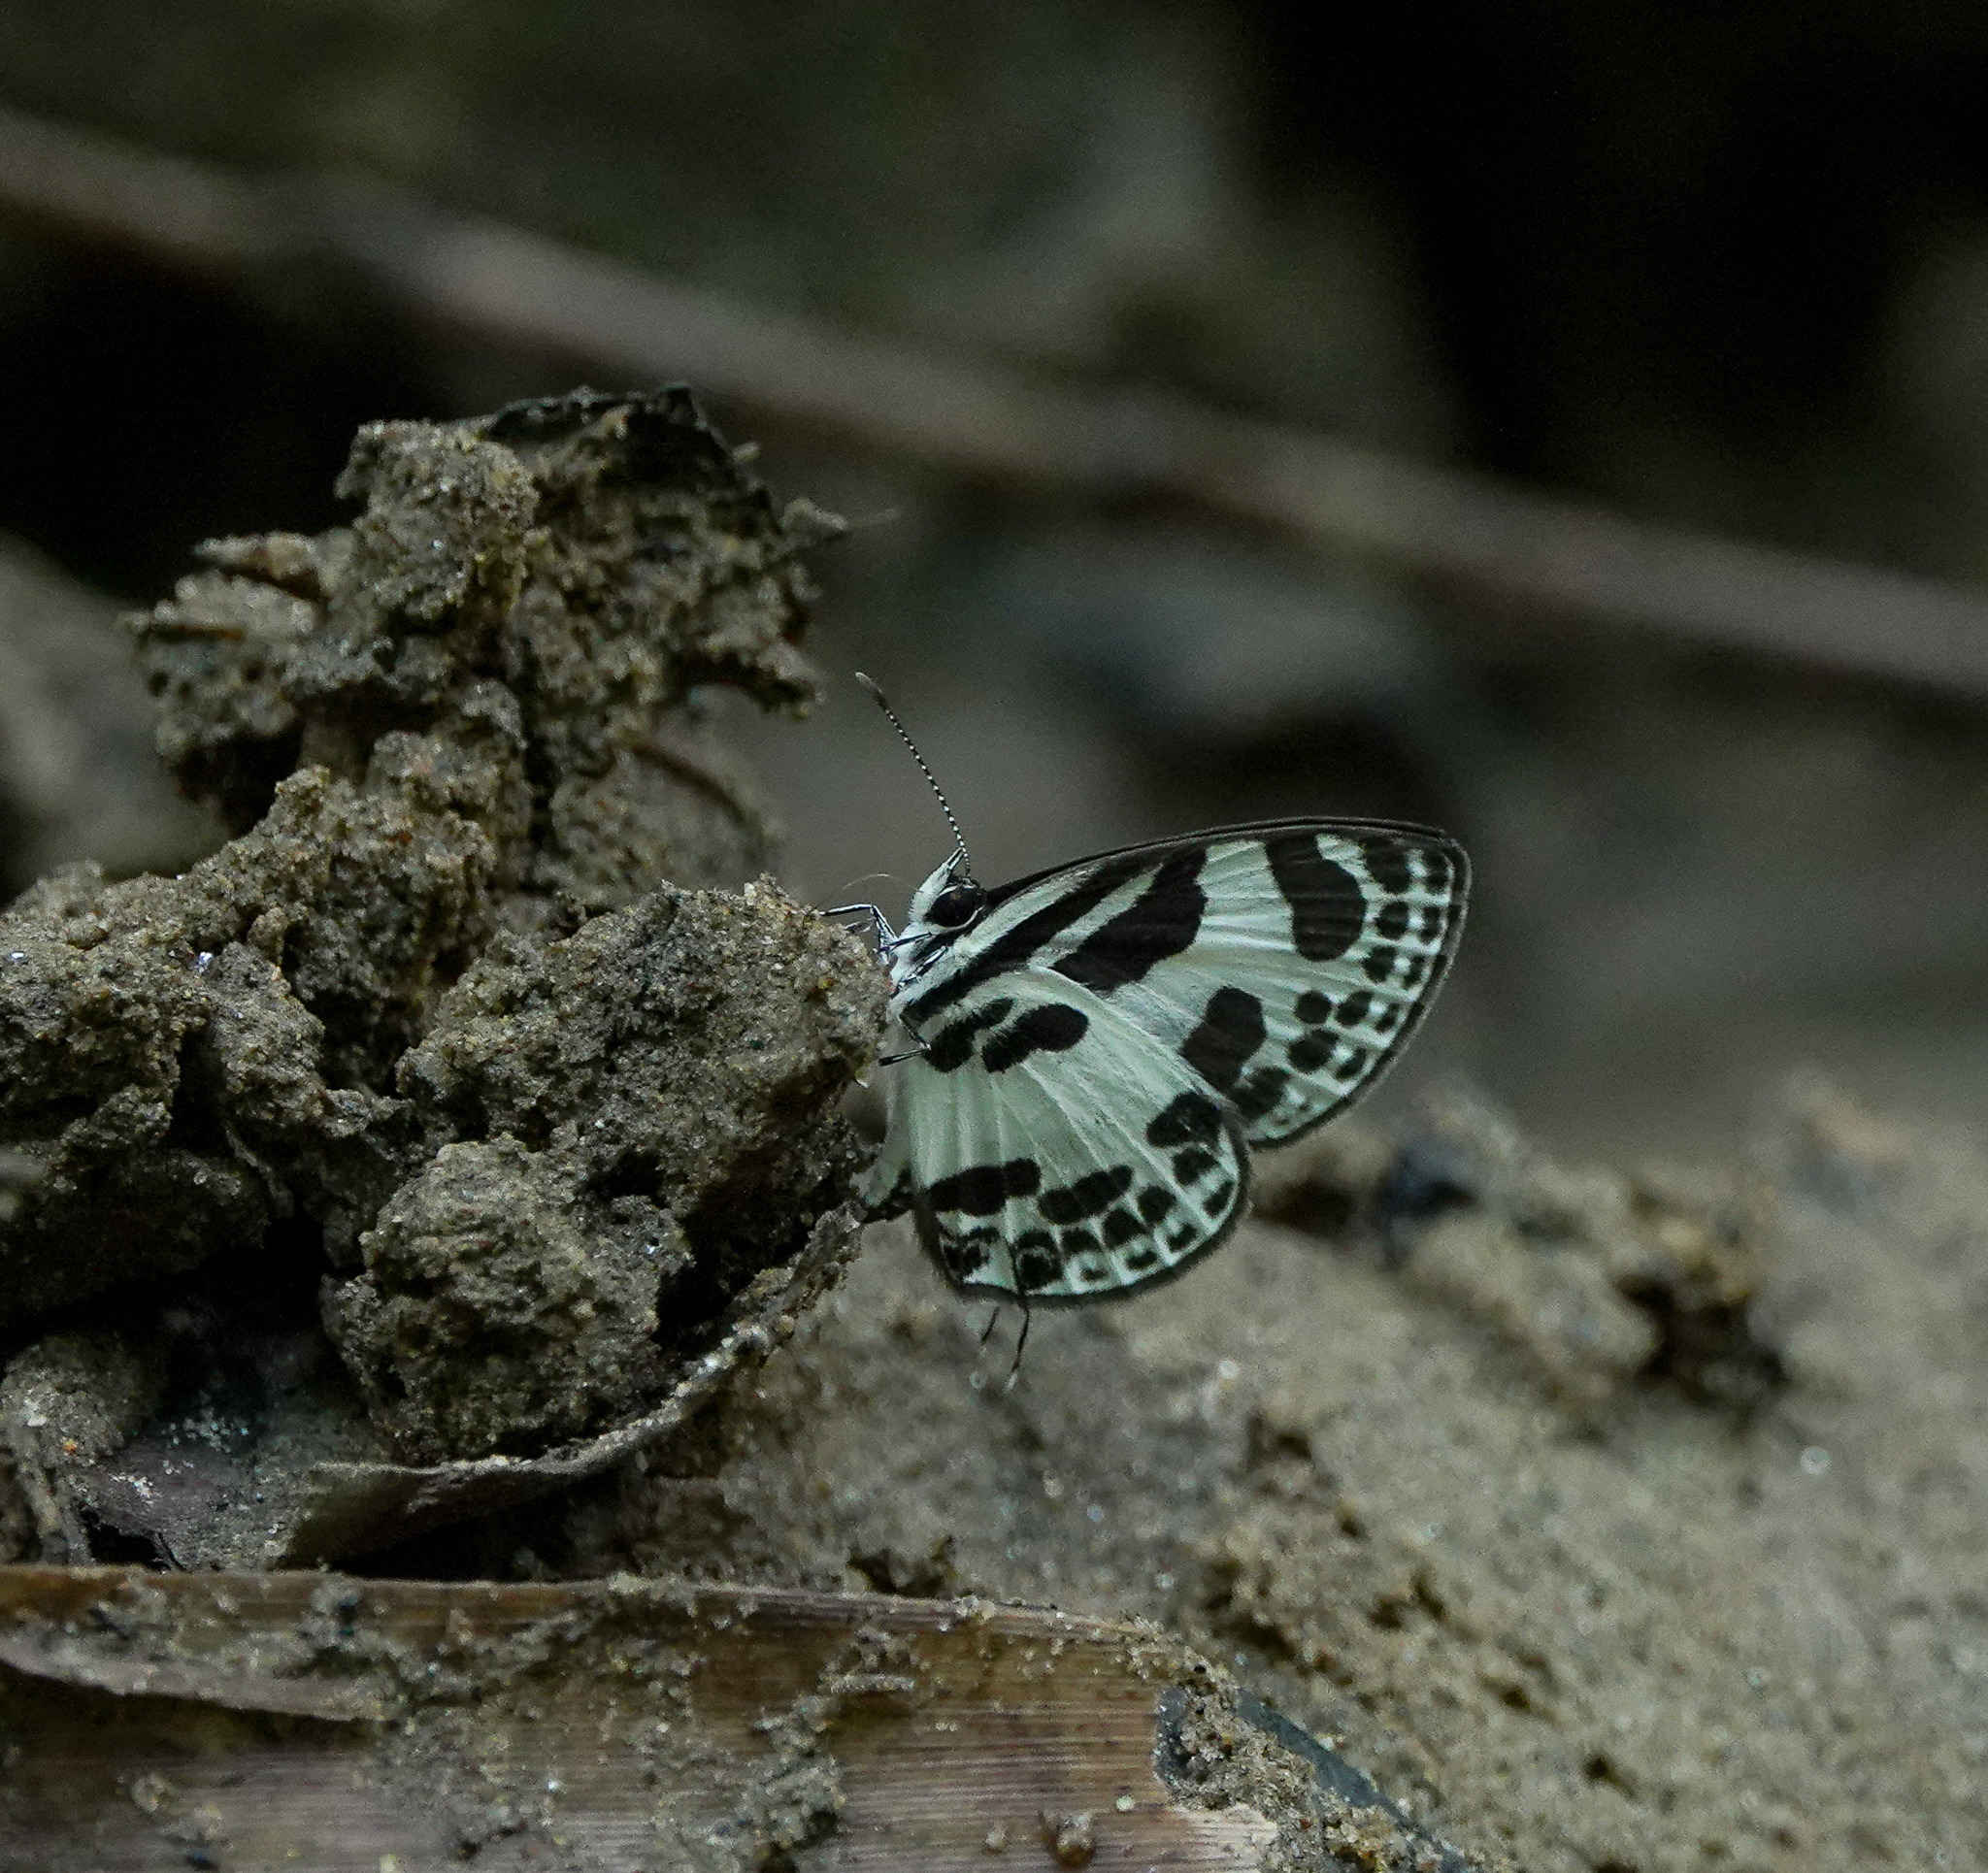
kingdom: Animalia
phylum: Arthropoda
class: Insecta
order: Lepidoptera
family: Lycaenidae
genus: Discolampa
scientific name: Discolampa ethion
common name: Banded blue pierrot
